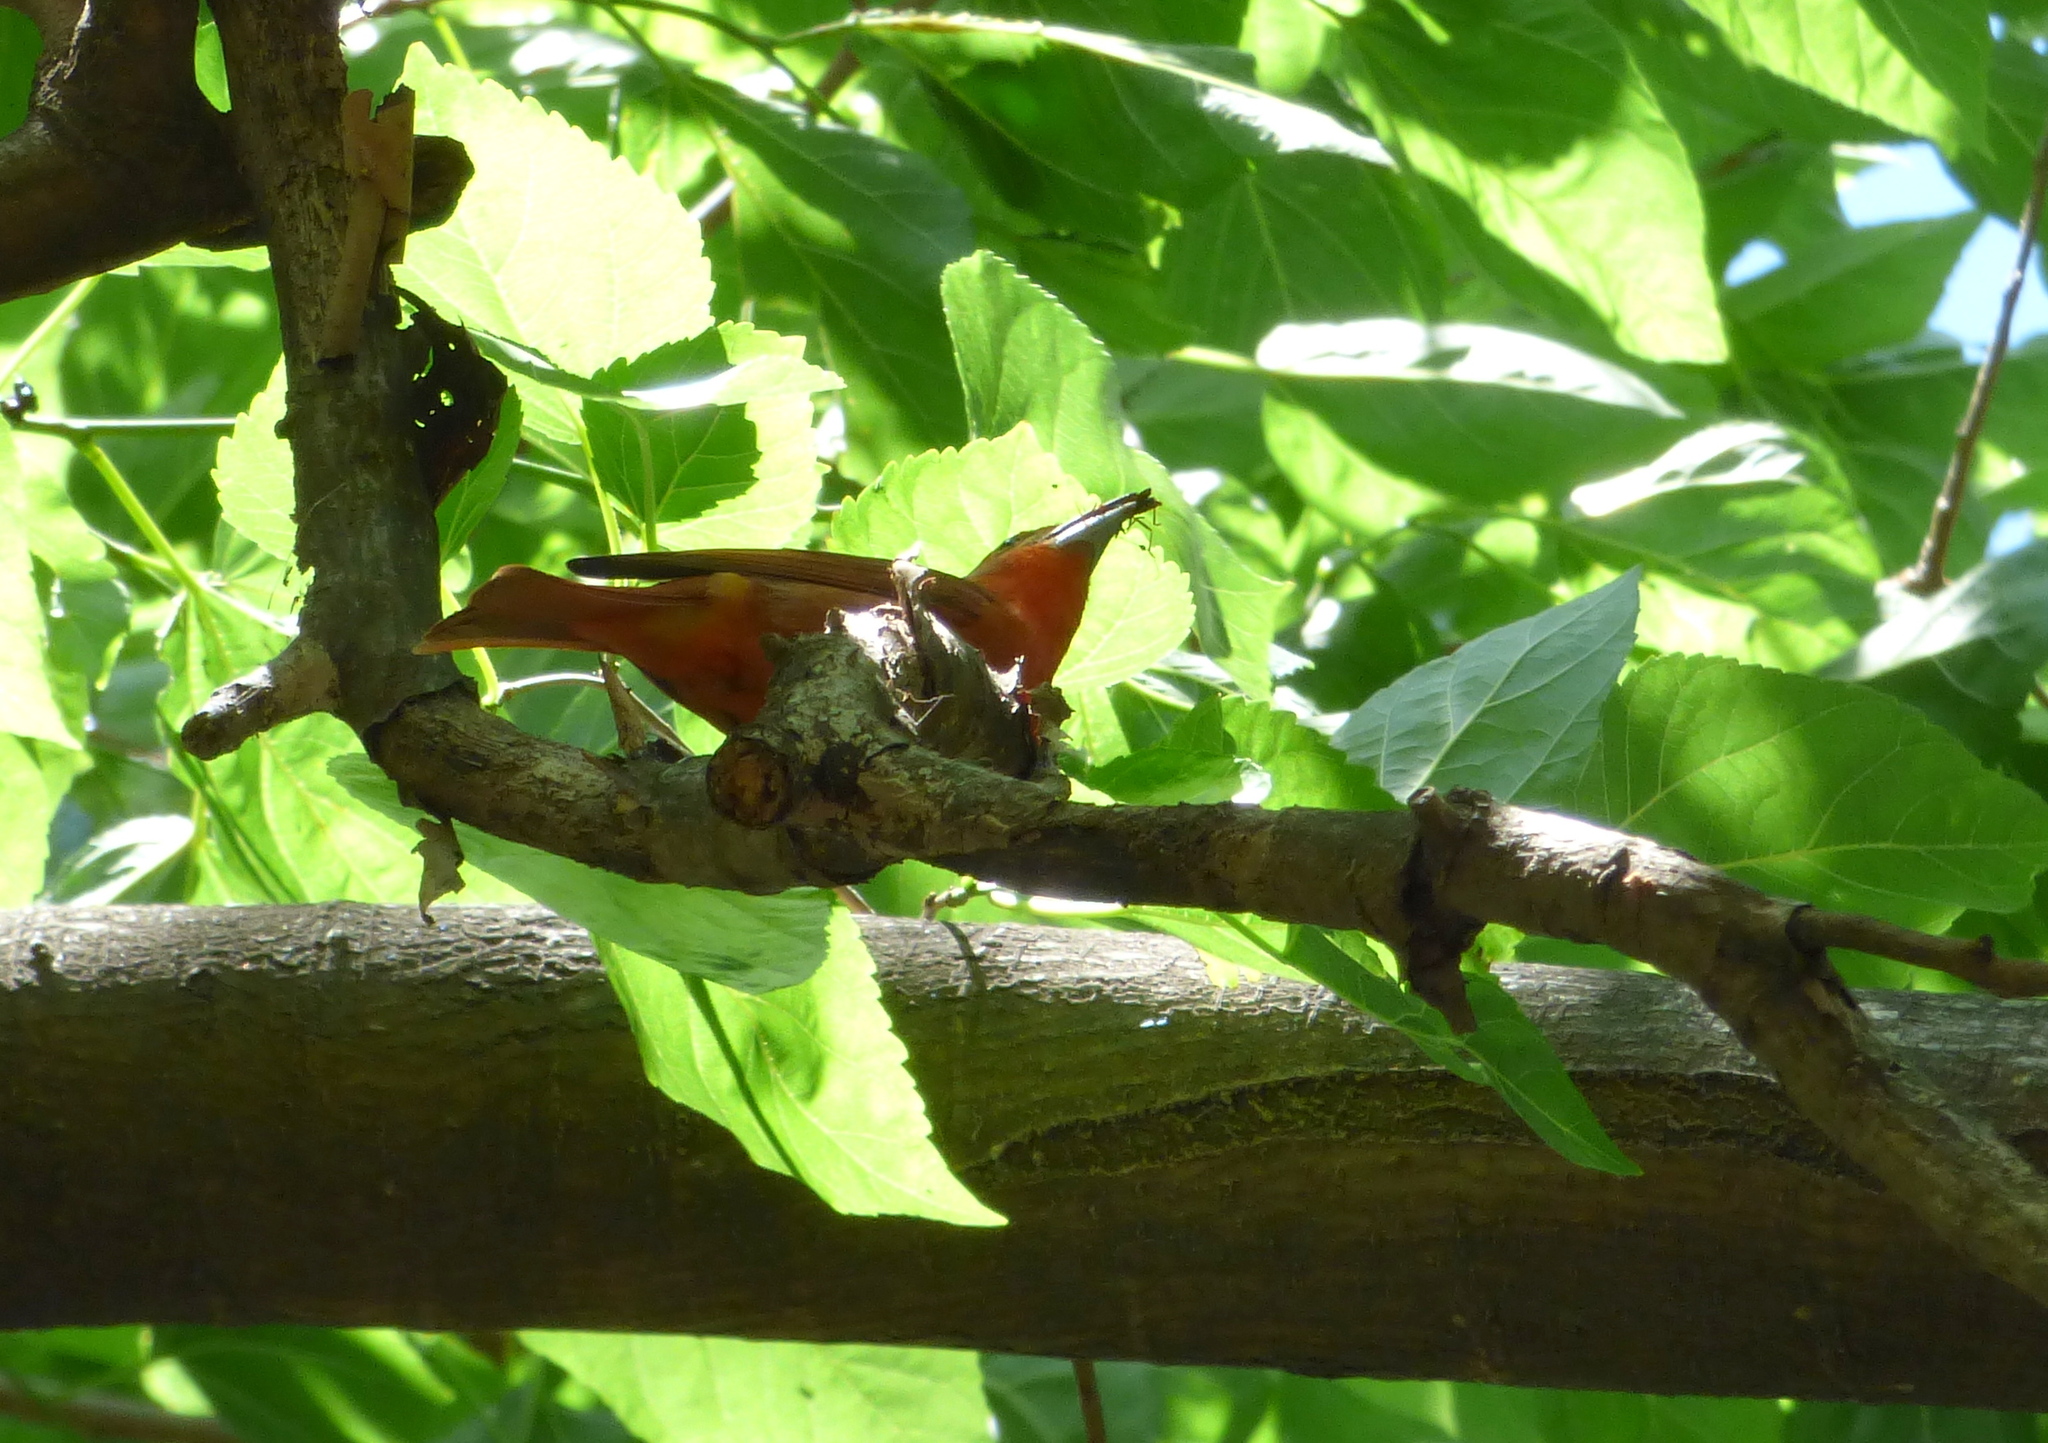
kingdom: Animalia
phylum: Chordata
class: Aves
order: Passeriformes
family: Cardinalidae
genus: Piranga
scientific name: Piranga flava
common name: Red tanager
